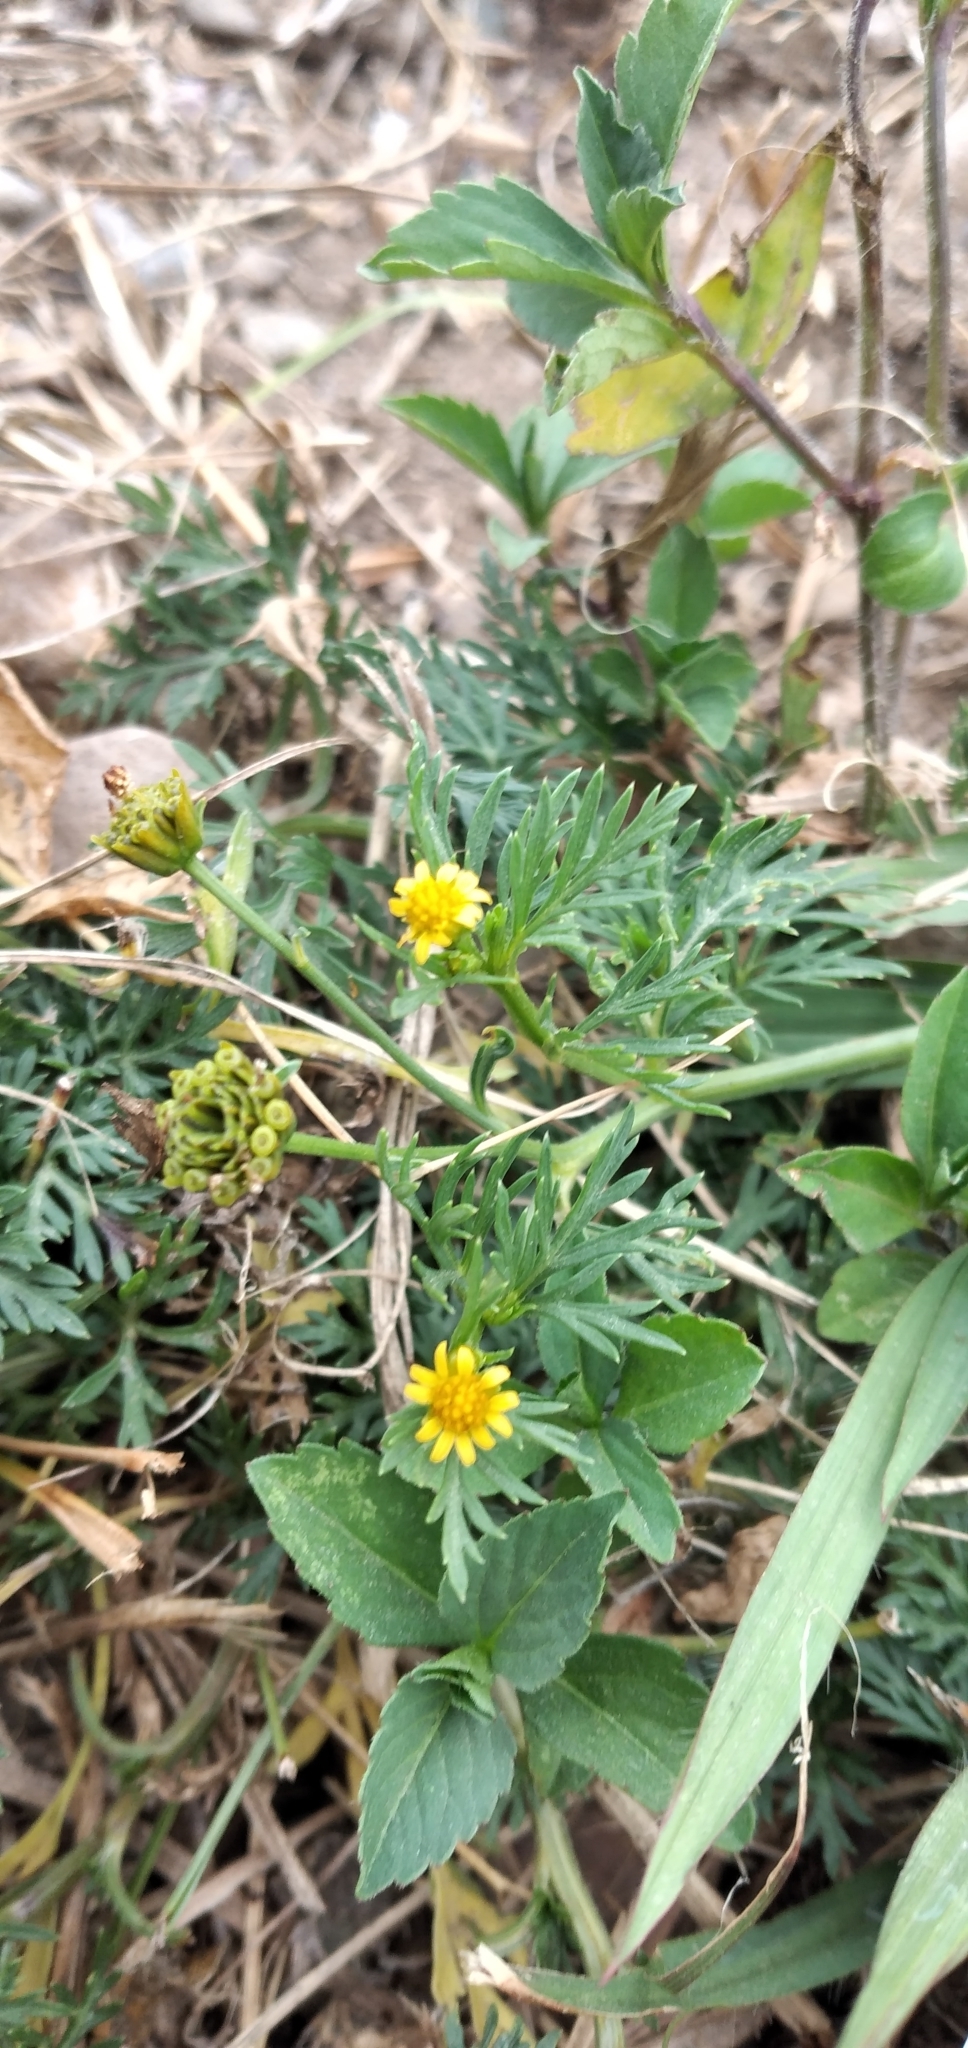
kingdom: Plantae
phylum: Tracheophyta
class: Magnoliopsida
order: Asterales
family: Asteraceae
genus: Chrysanthellum
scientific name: Chrysanthellum indicum
